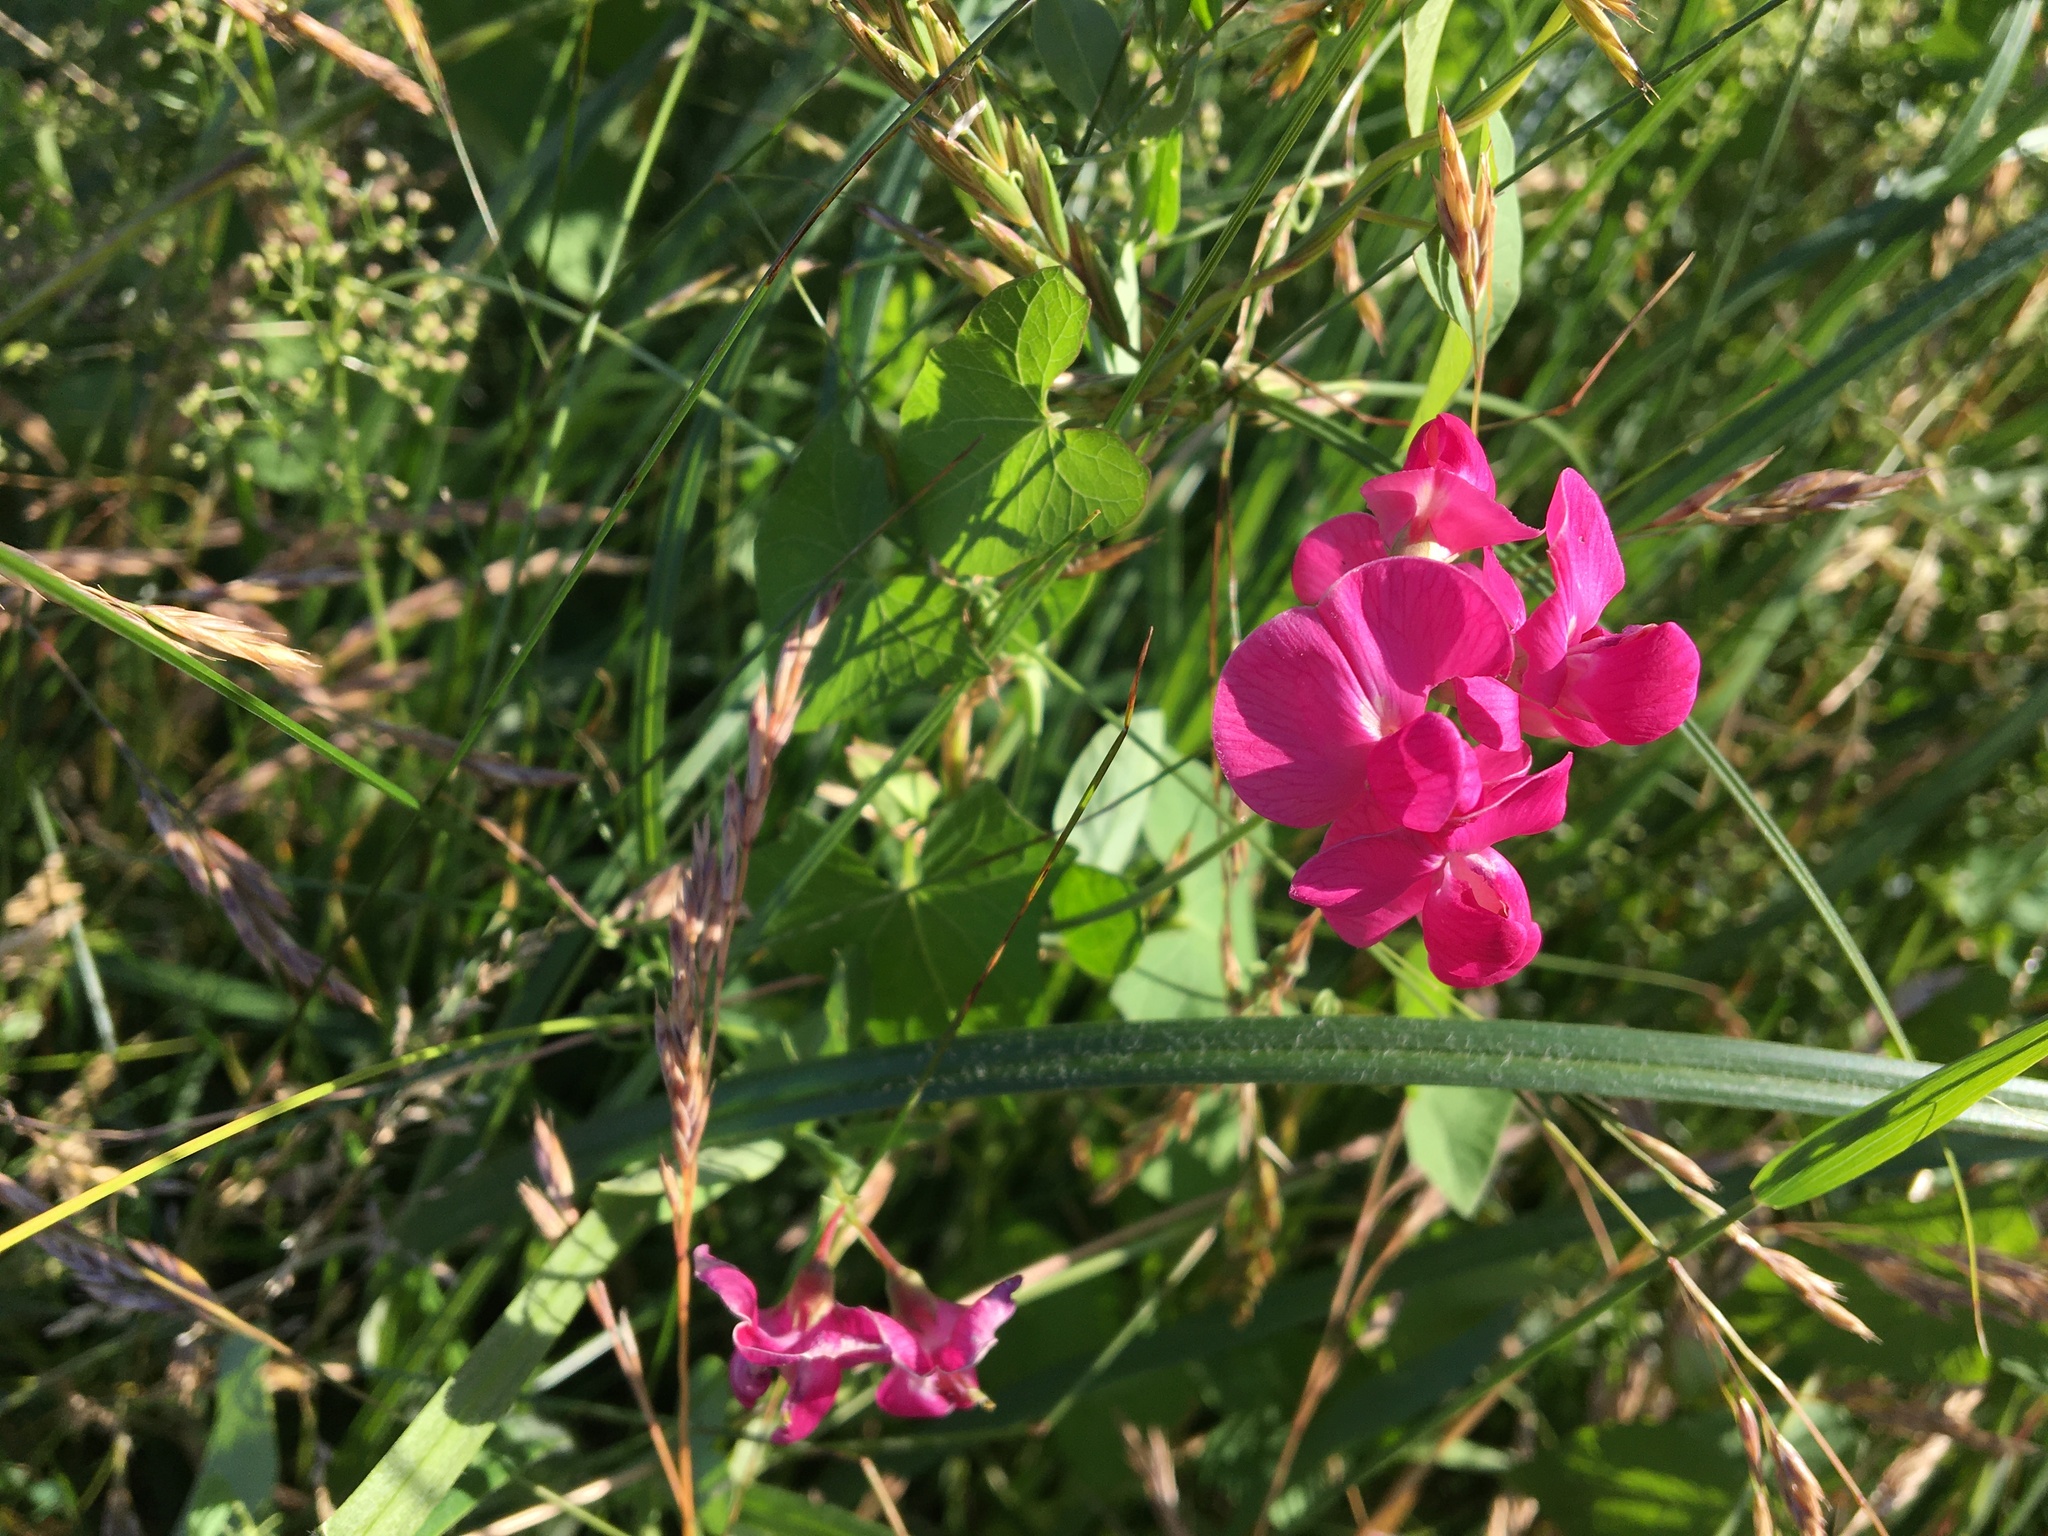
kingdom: Plantae
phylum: Tracheophyta
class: Magnoliopsida
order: Fabales
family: Fabaceae
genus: Lathyrus
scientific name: Lathyrus tuberosus
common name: Tuberous pea
